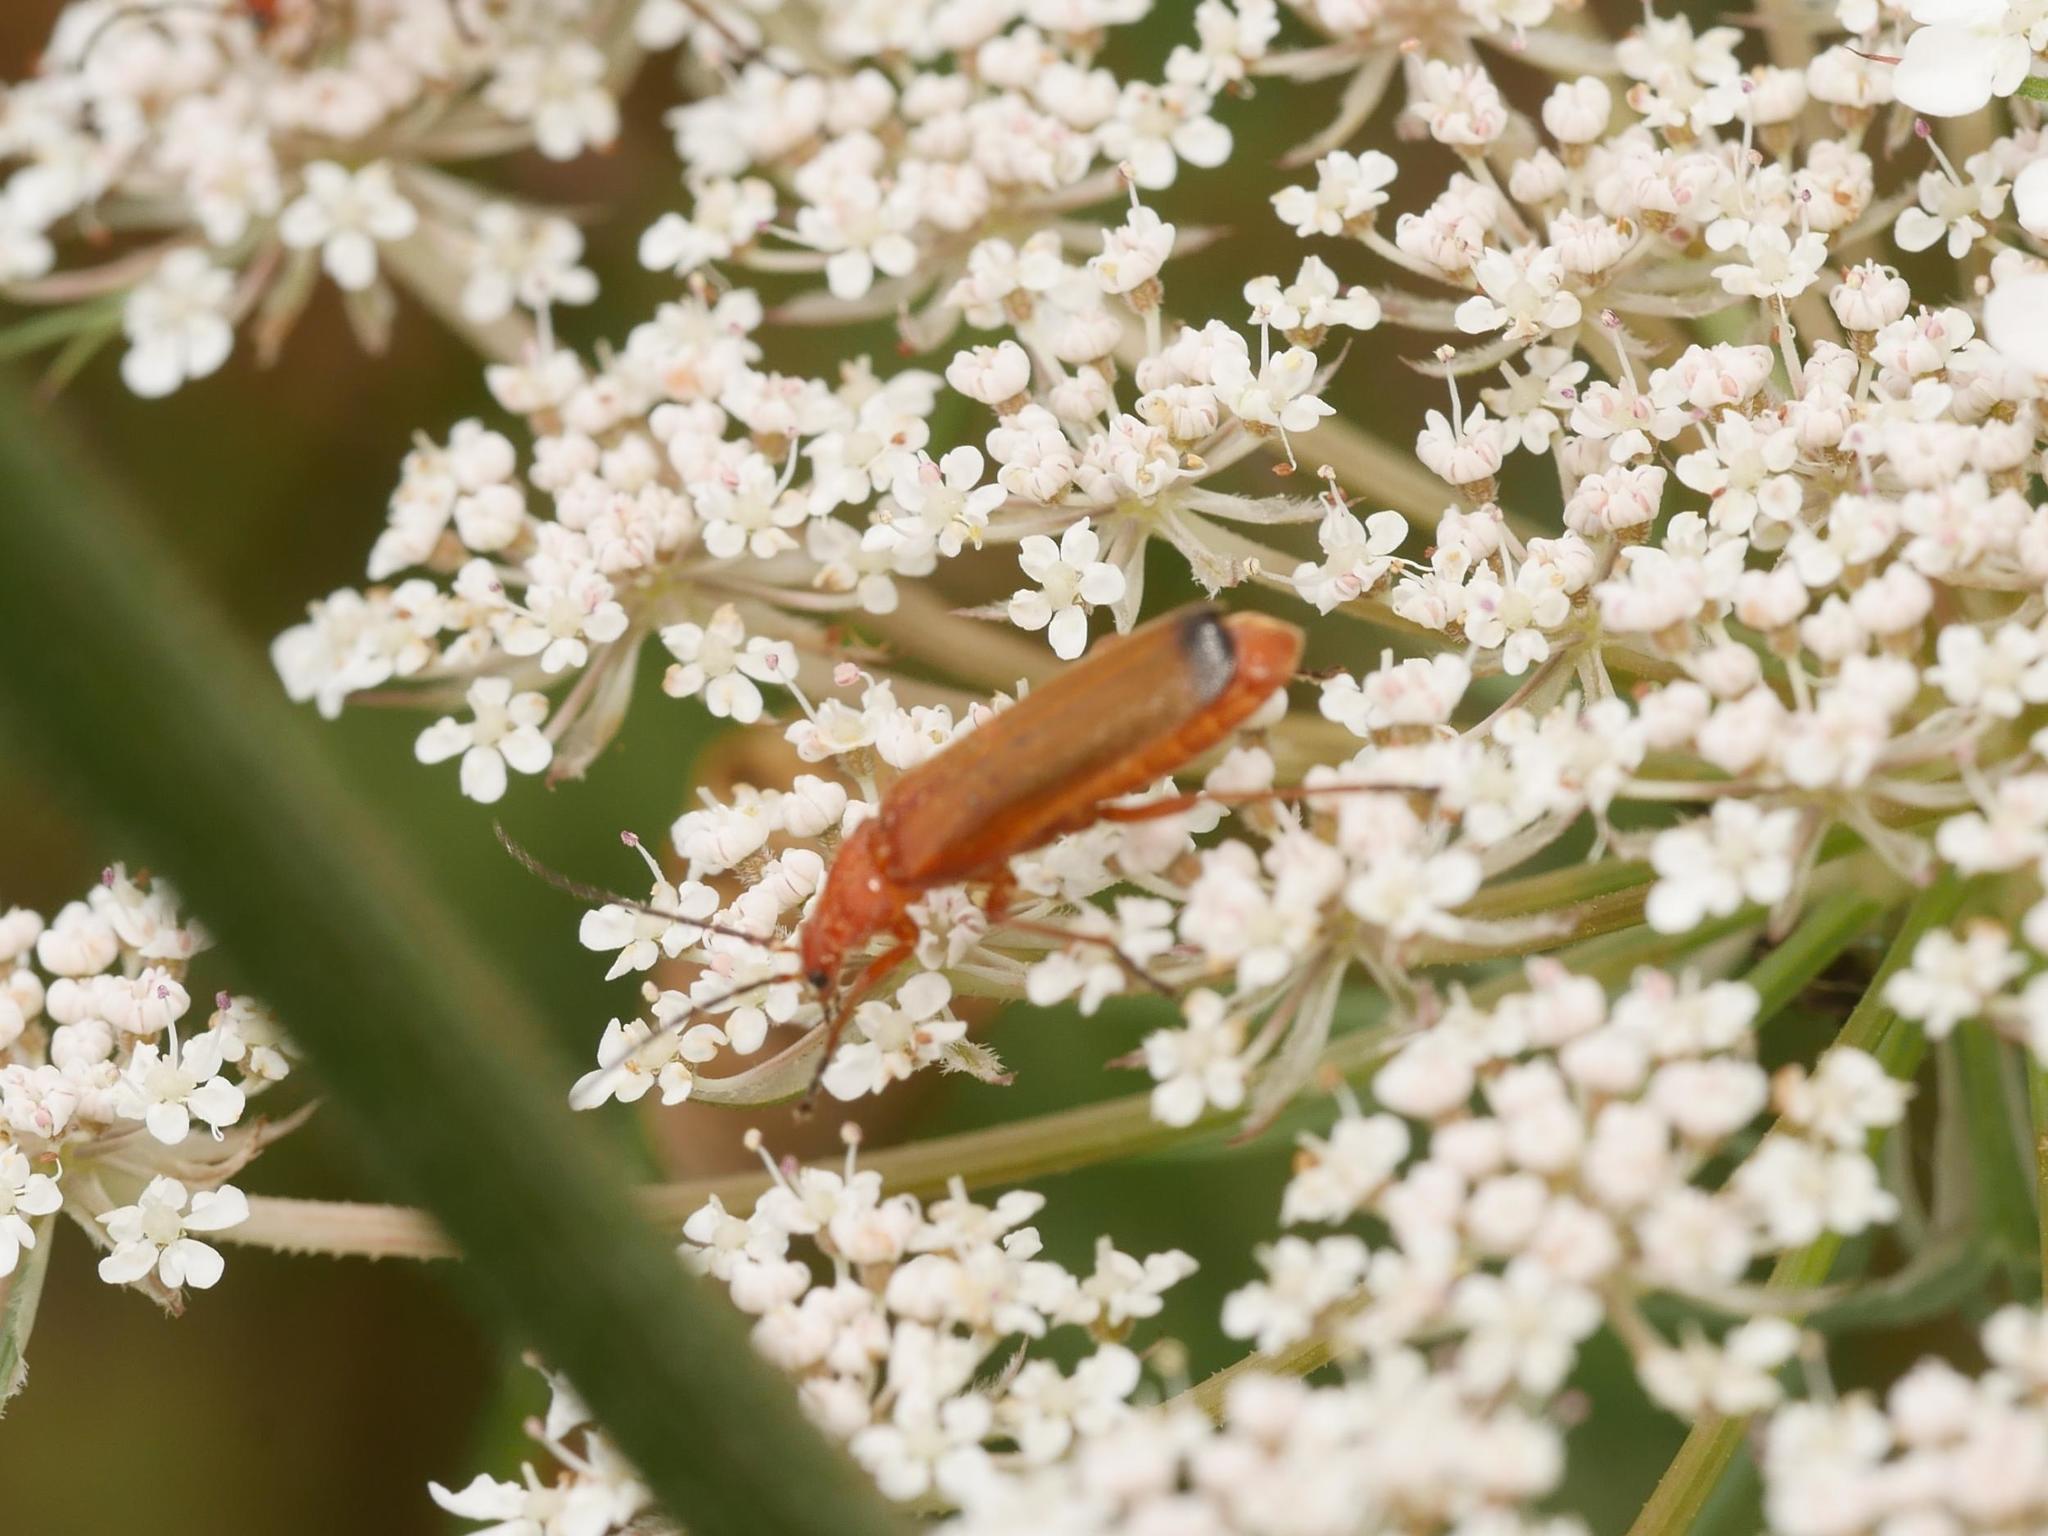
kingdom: Animalia
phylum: Arthropoda
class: Insecta
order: Coleoptera
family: Cantharidae
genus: Rhagonycha
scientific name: Rhagonycha fulva
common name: Common red soldier beetle
